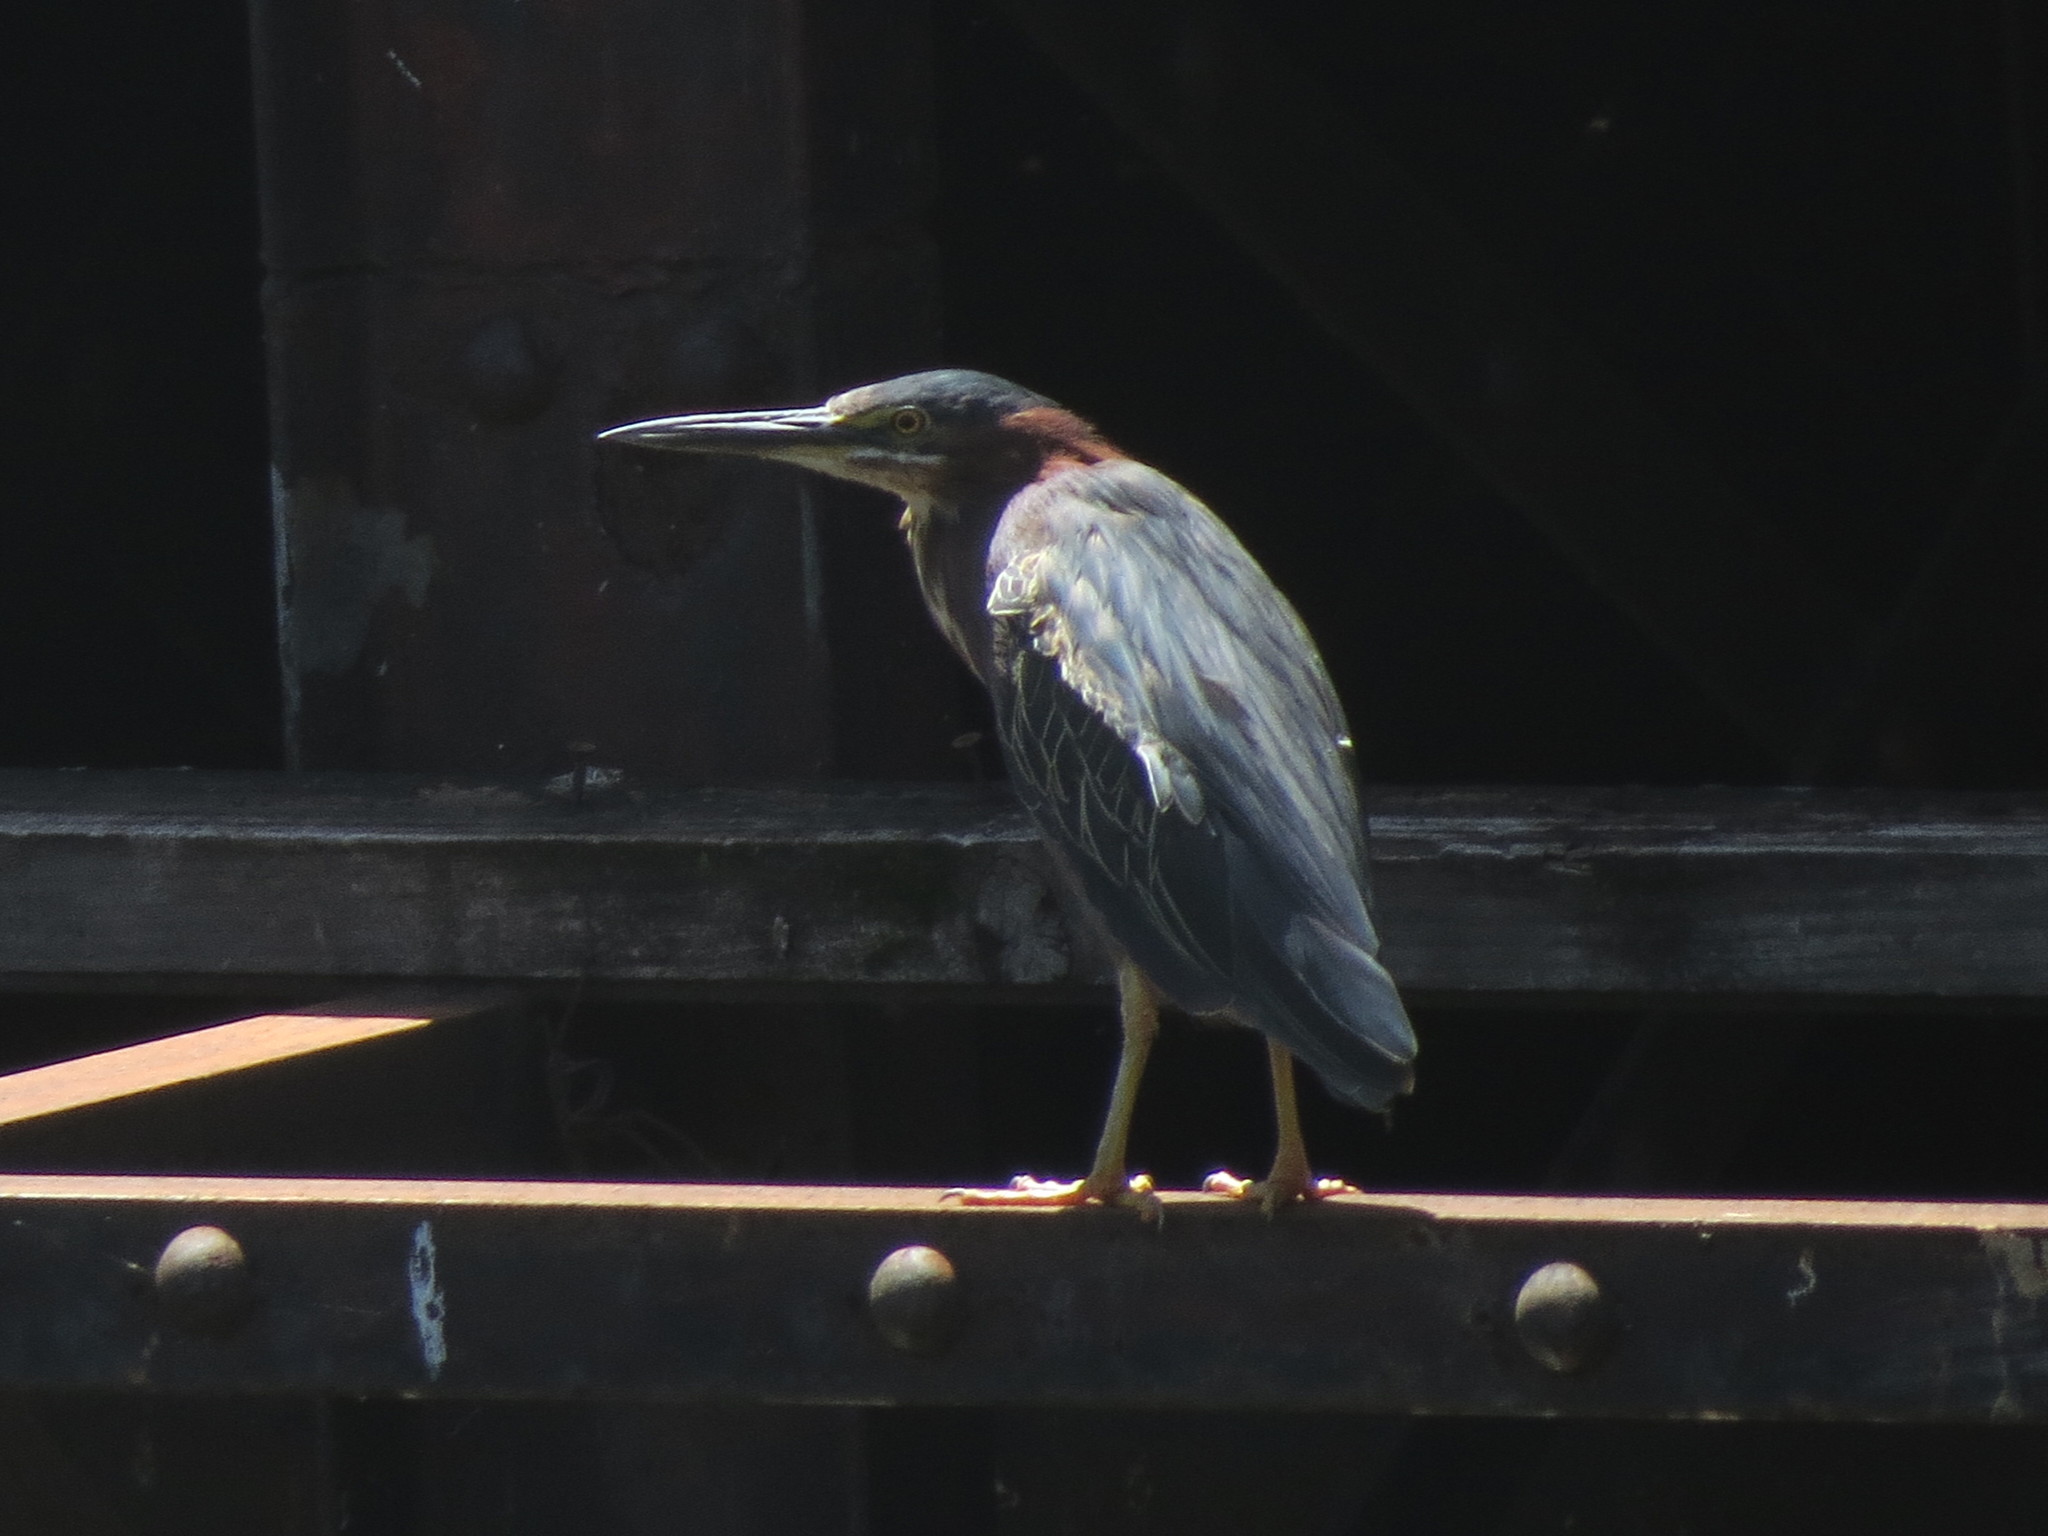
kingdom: Animalia
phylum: Chordata
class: Aves
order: Pelecaniformes
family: Ardeidae
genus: Butorides
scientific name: Butorides virescens
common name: Green heron
